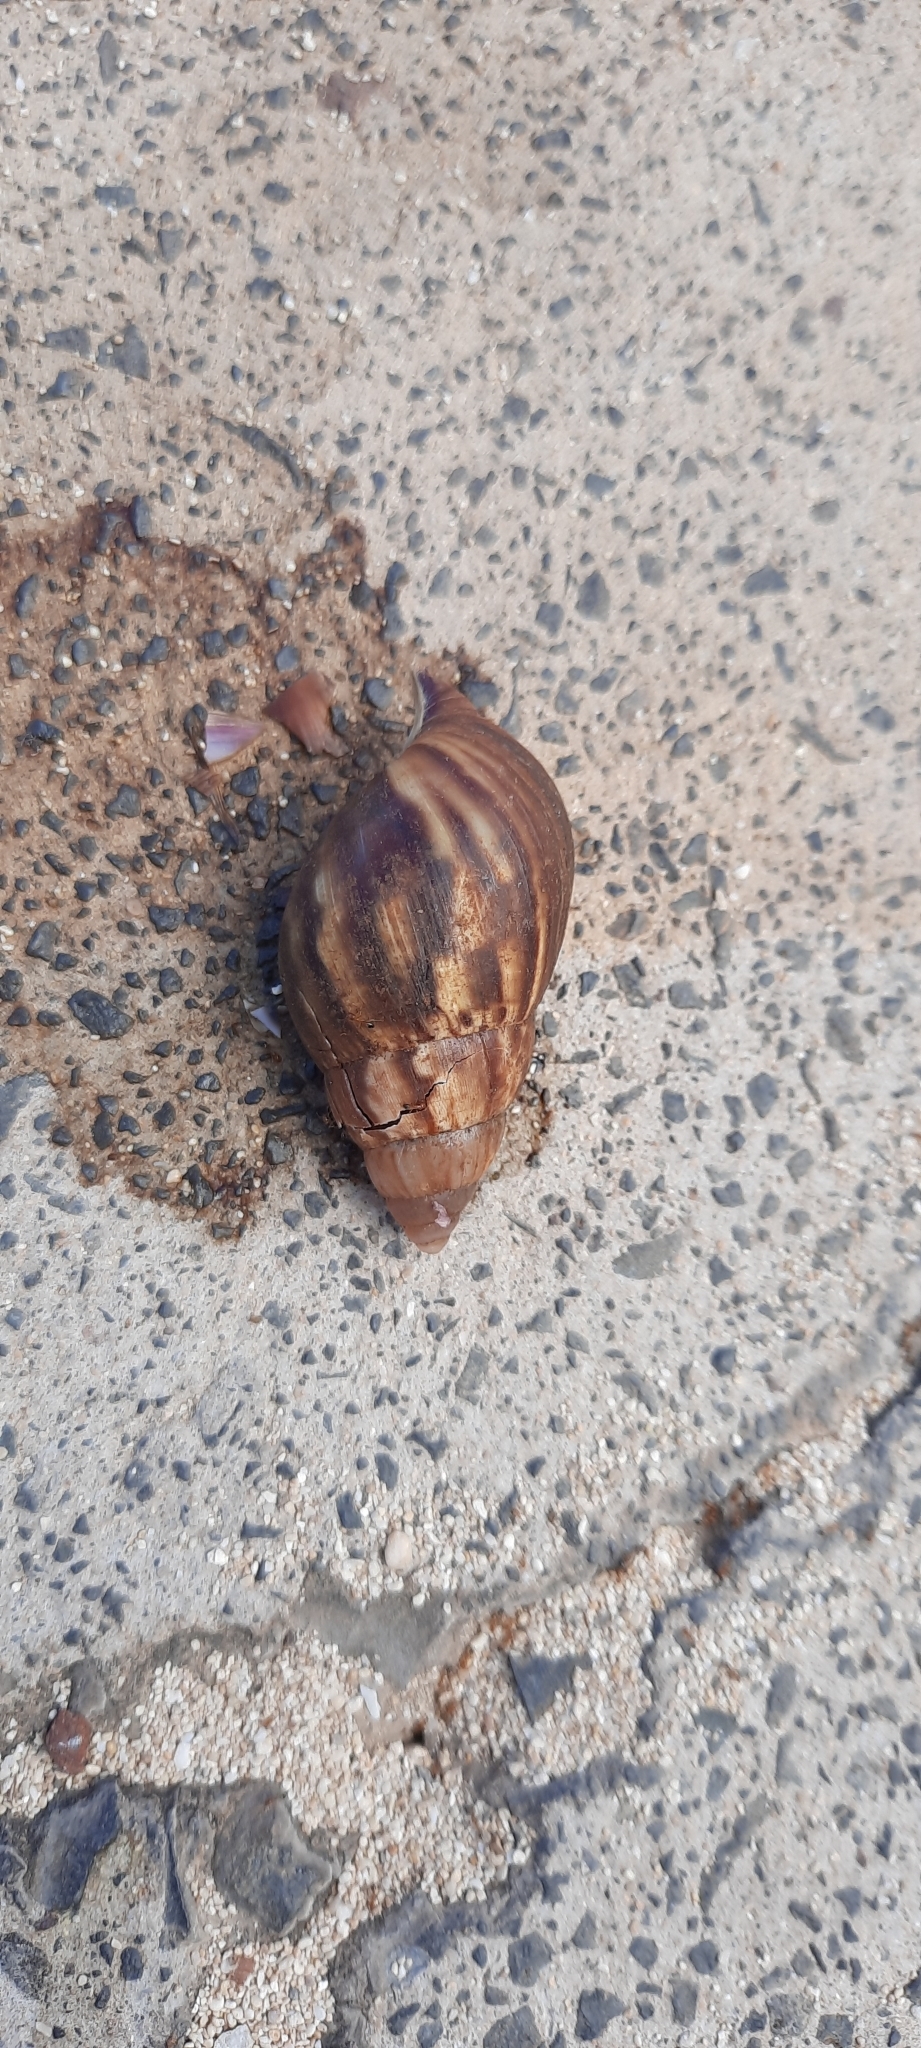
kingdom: Animalia
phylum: Mollusca
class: Gastropoda
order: Stylommatophora
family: Achatinidae
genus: Lissachatina
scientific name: Lissachatina fulica
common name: Giant african snail
